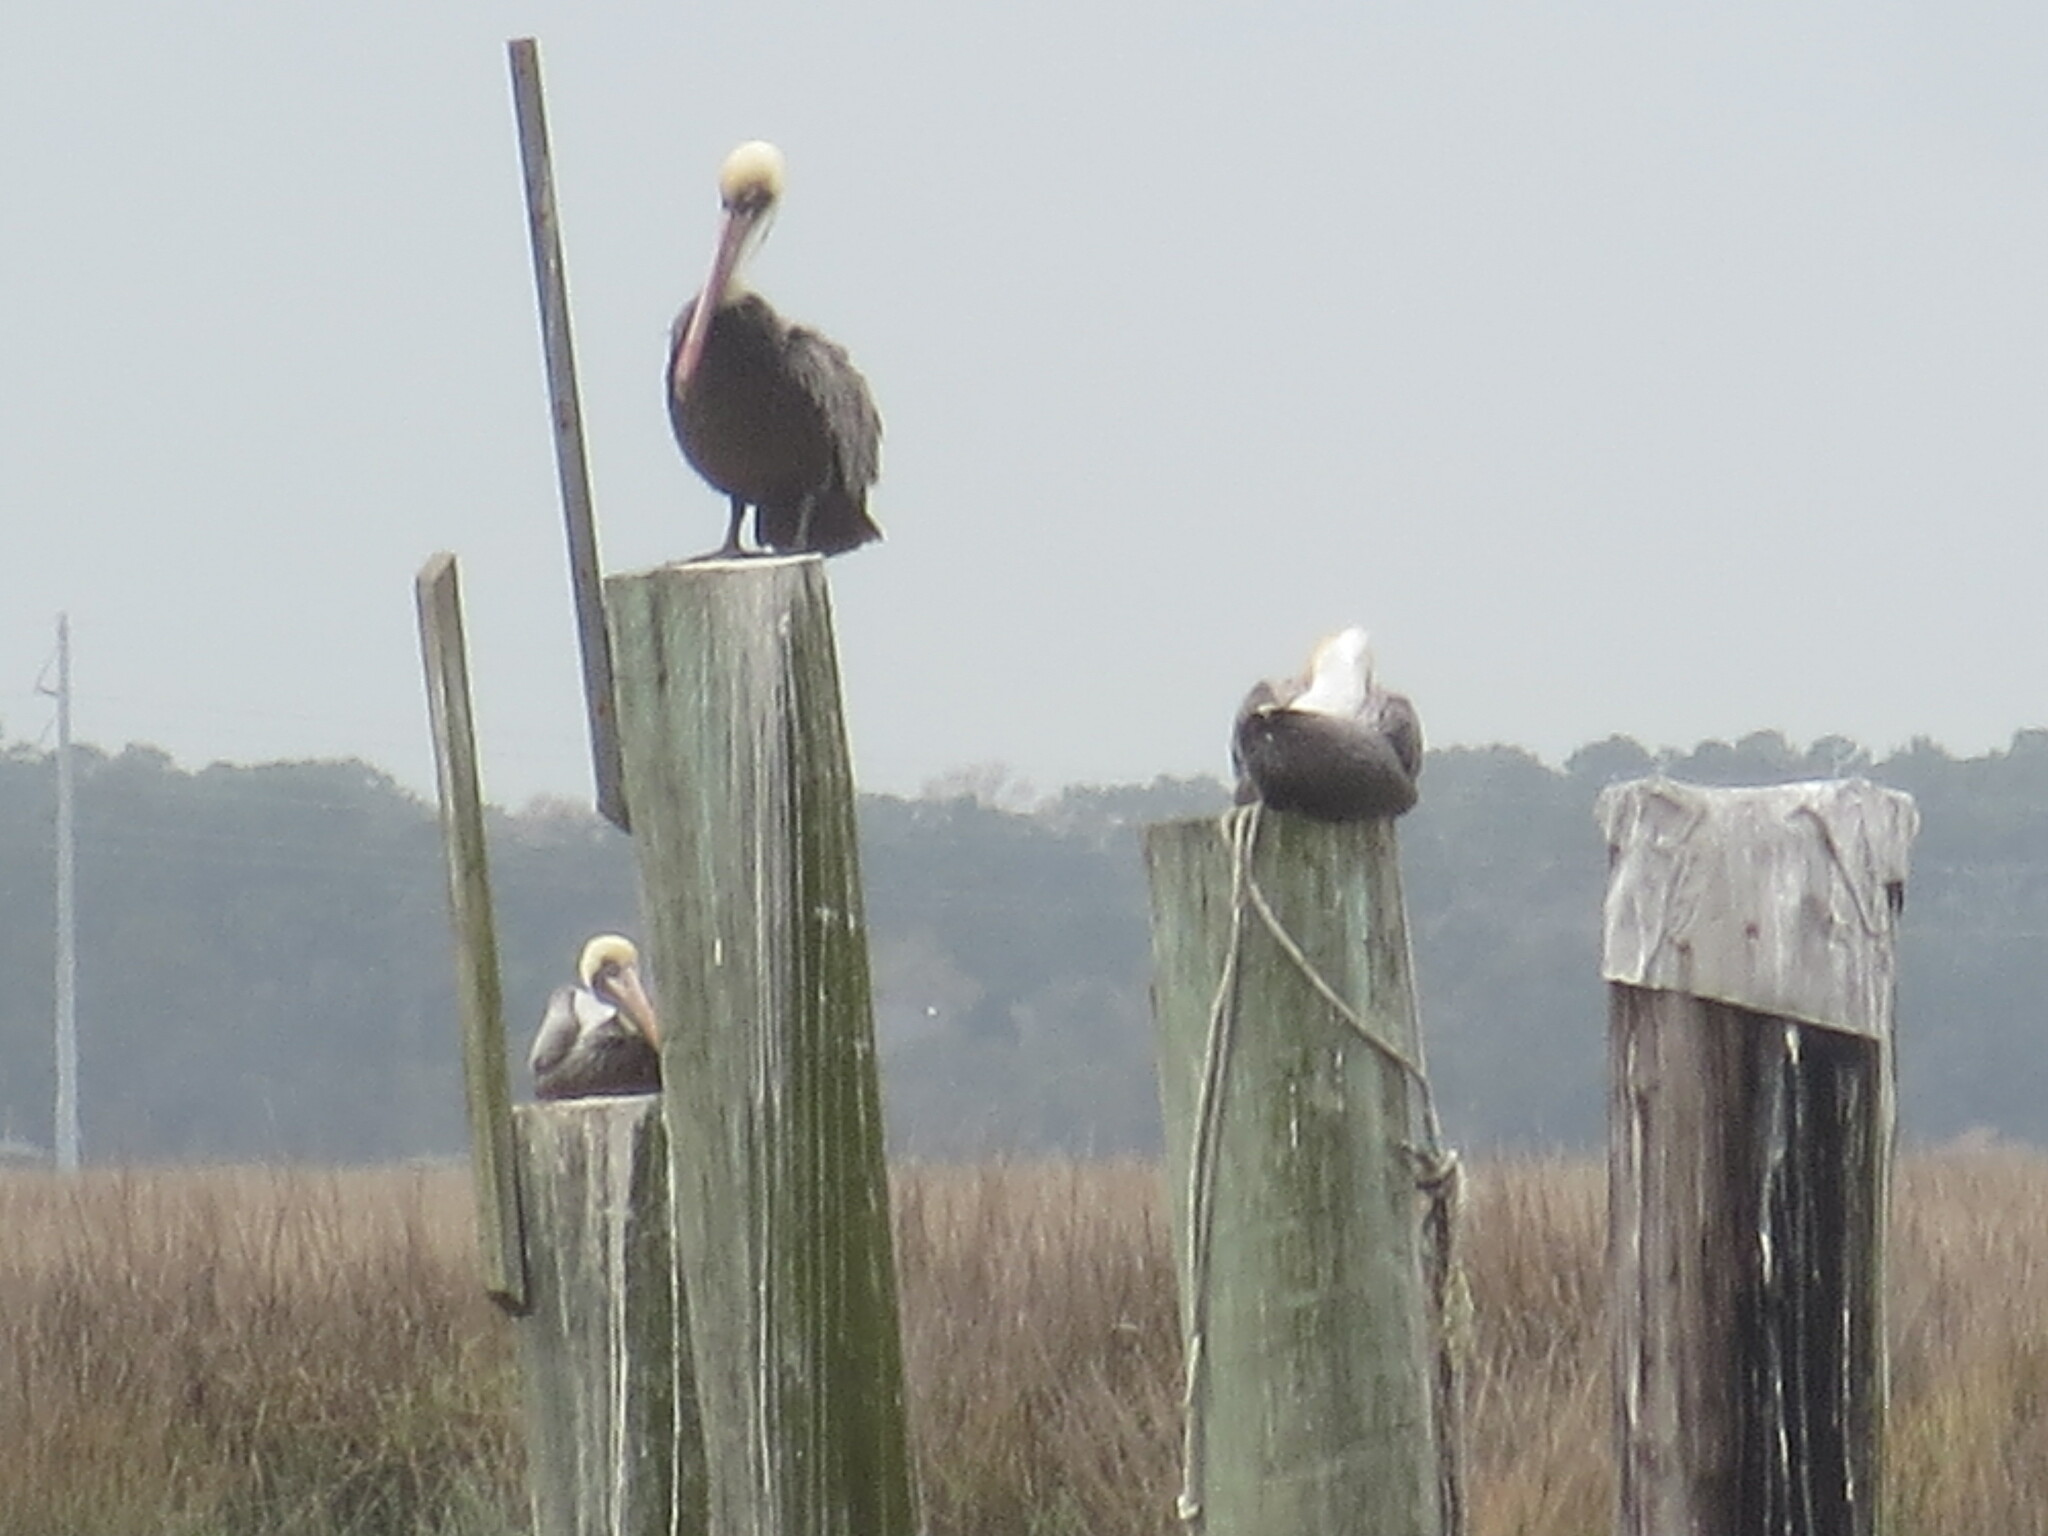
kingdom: Animalia
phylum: Chordata
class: Aves
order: Pelecaniformes
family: Pelecanidae
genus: Pelecanus
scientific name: Pelecanus occidentalis
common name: Brown pelican
